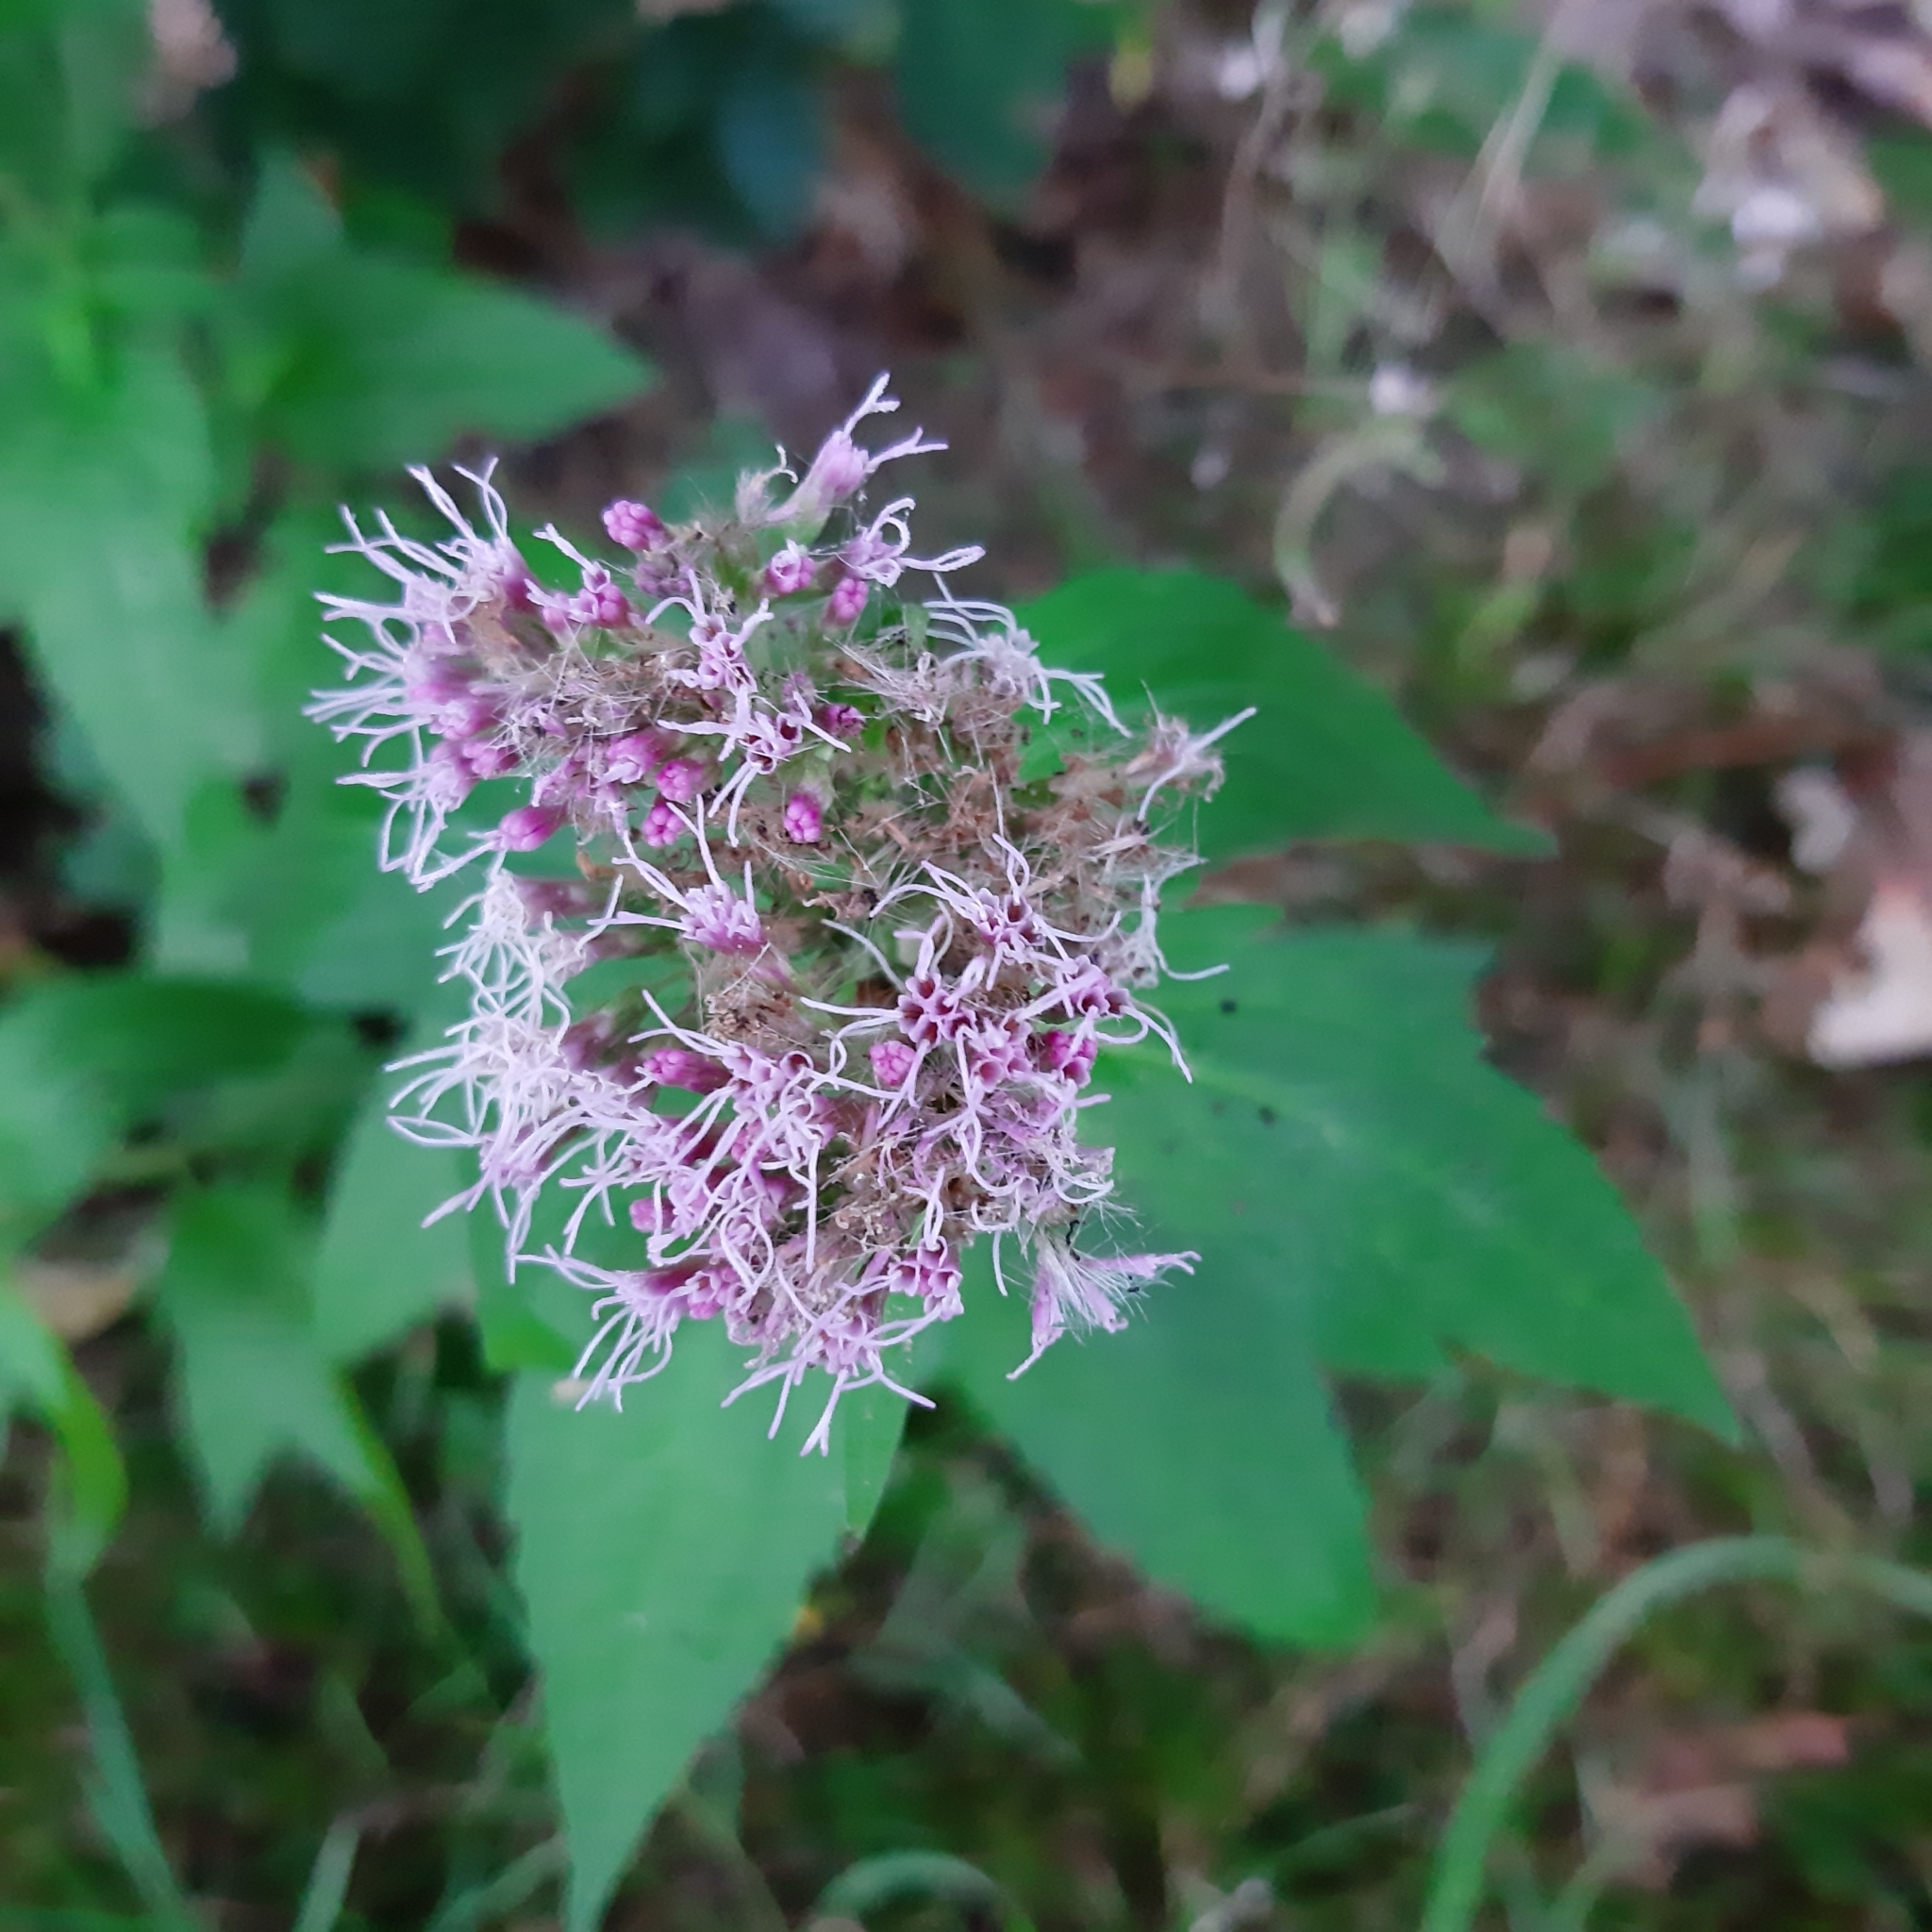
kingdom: Plantae
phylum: Tracheophyta
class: Magnoliopsida
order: Asterales
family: Asteraceae
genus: Eupatorium
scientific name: Eupatorium cannabinum
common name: Hemp-agrimony
